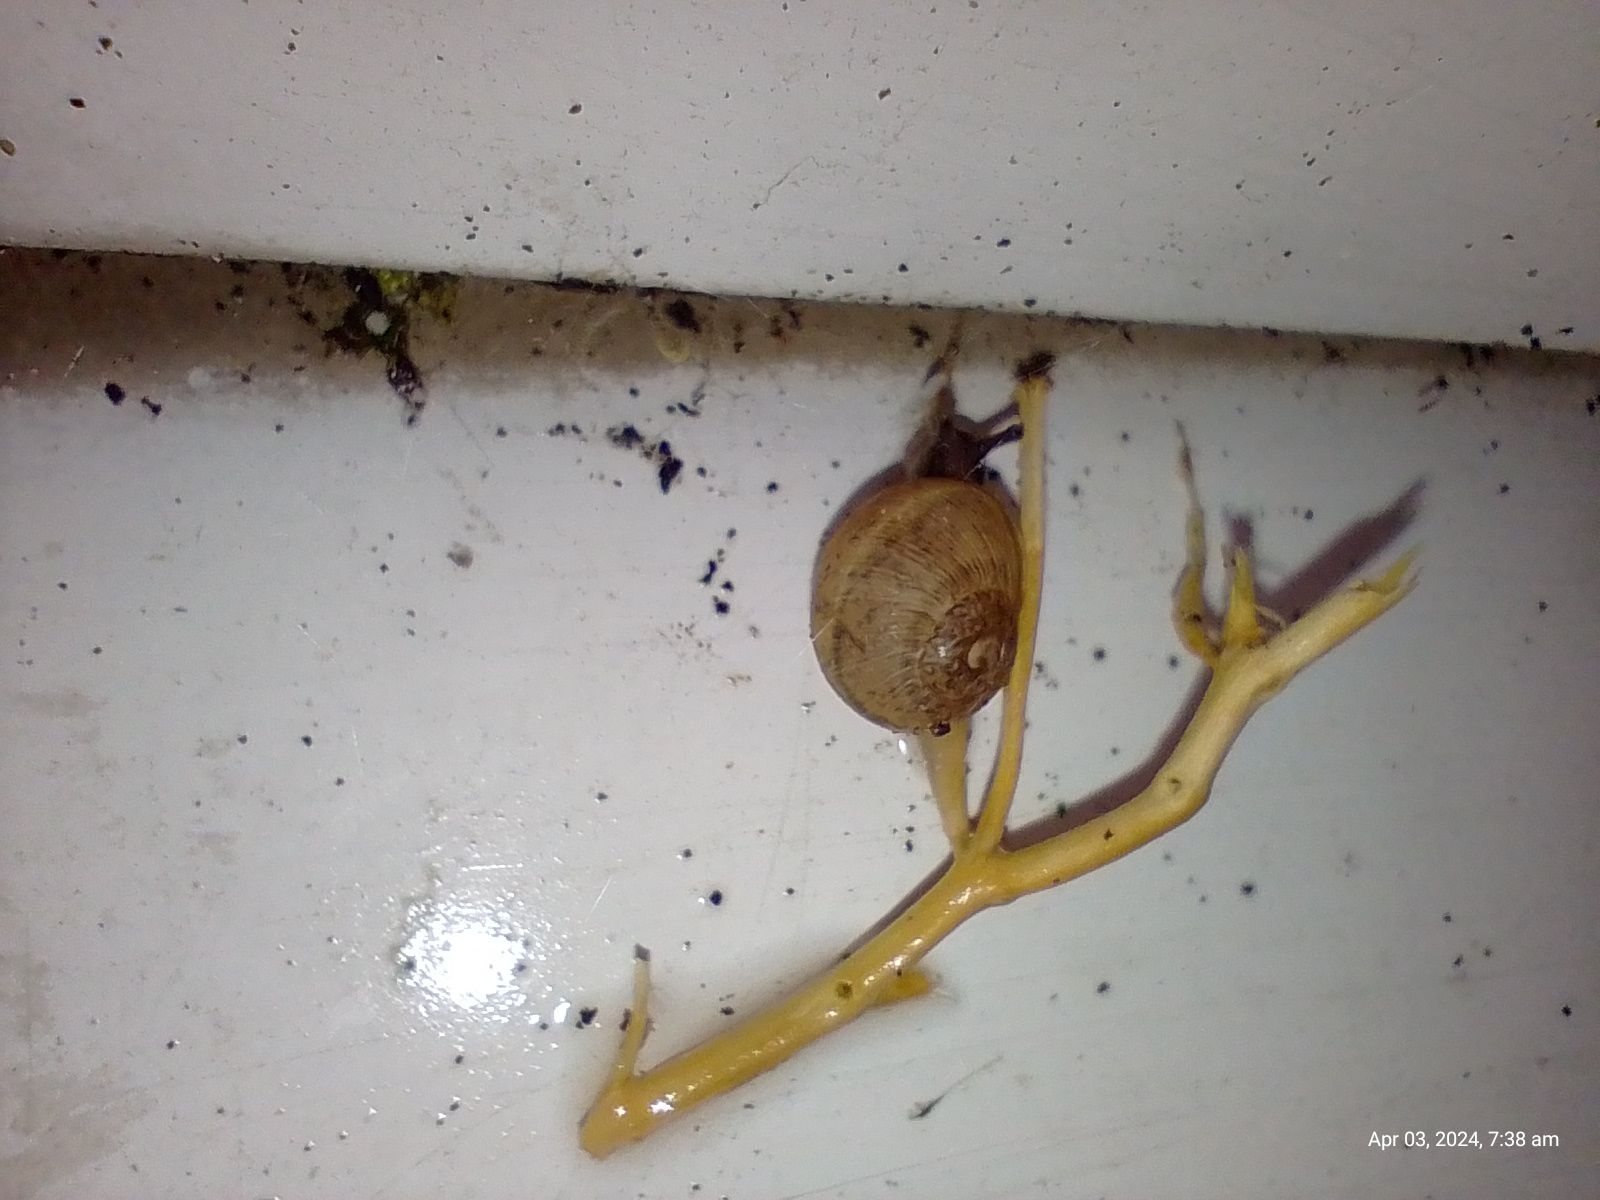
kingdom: Animalia
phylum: Mollusca
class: Gastropoda
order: Stylommatophora
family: Helicidae
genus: Cornu
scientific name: Cornu aspersum
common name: Brown garden snail
